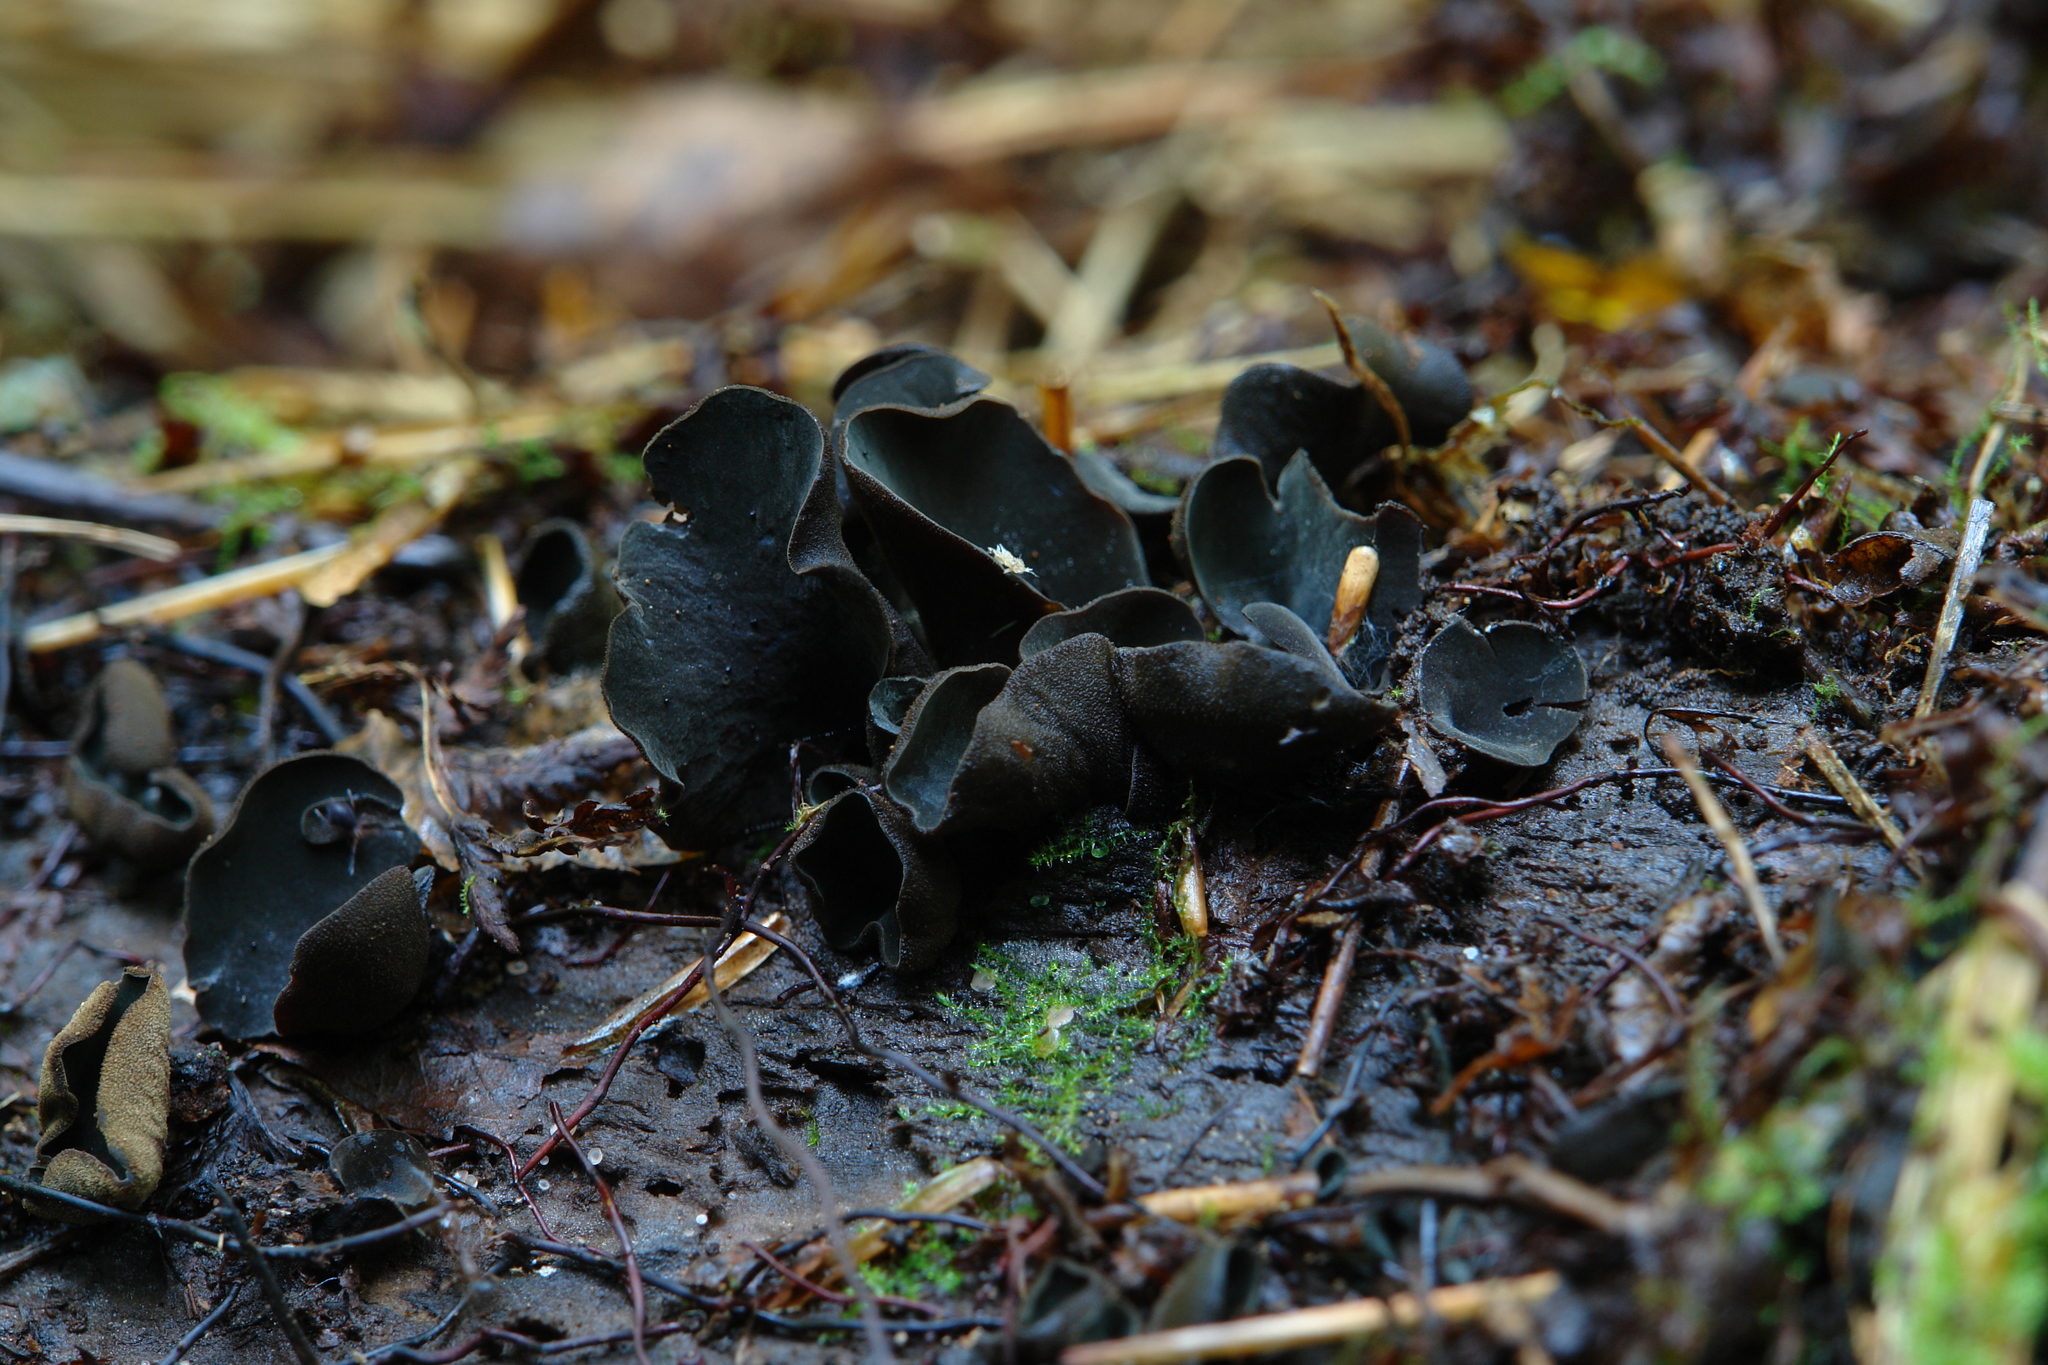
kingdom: Fungi
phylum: Ascomycota
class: Leotiomycetes
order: Helotiales
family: Cordieritidaceae
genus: Diplocarpa
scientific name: Diplocarpa irregularis
